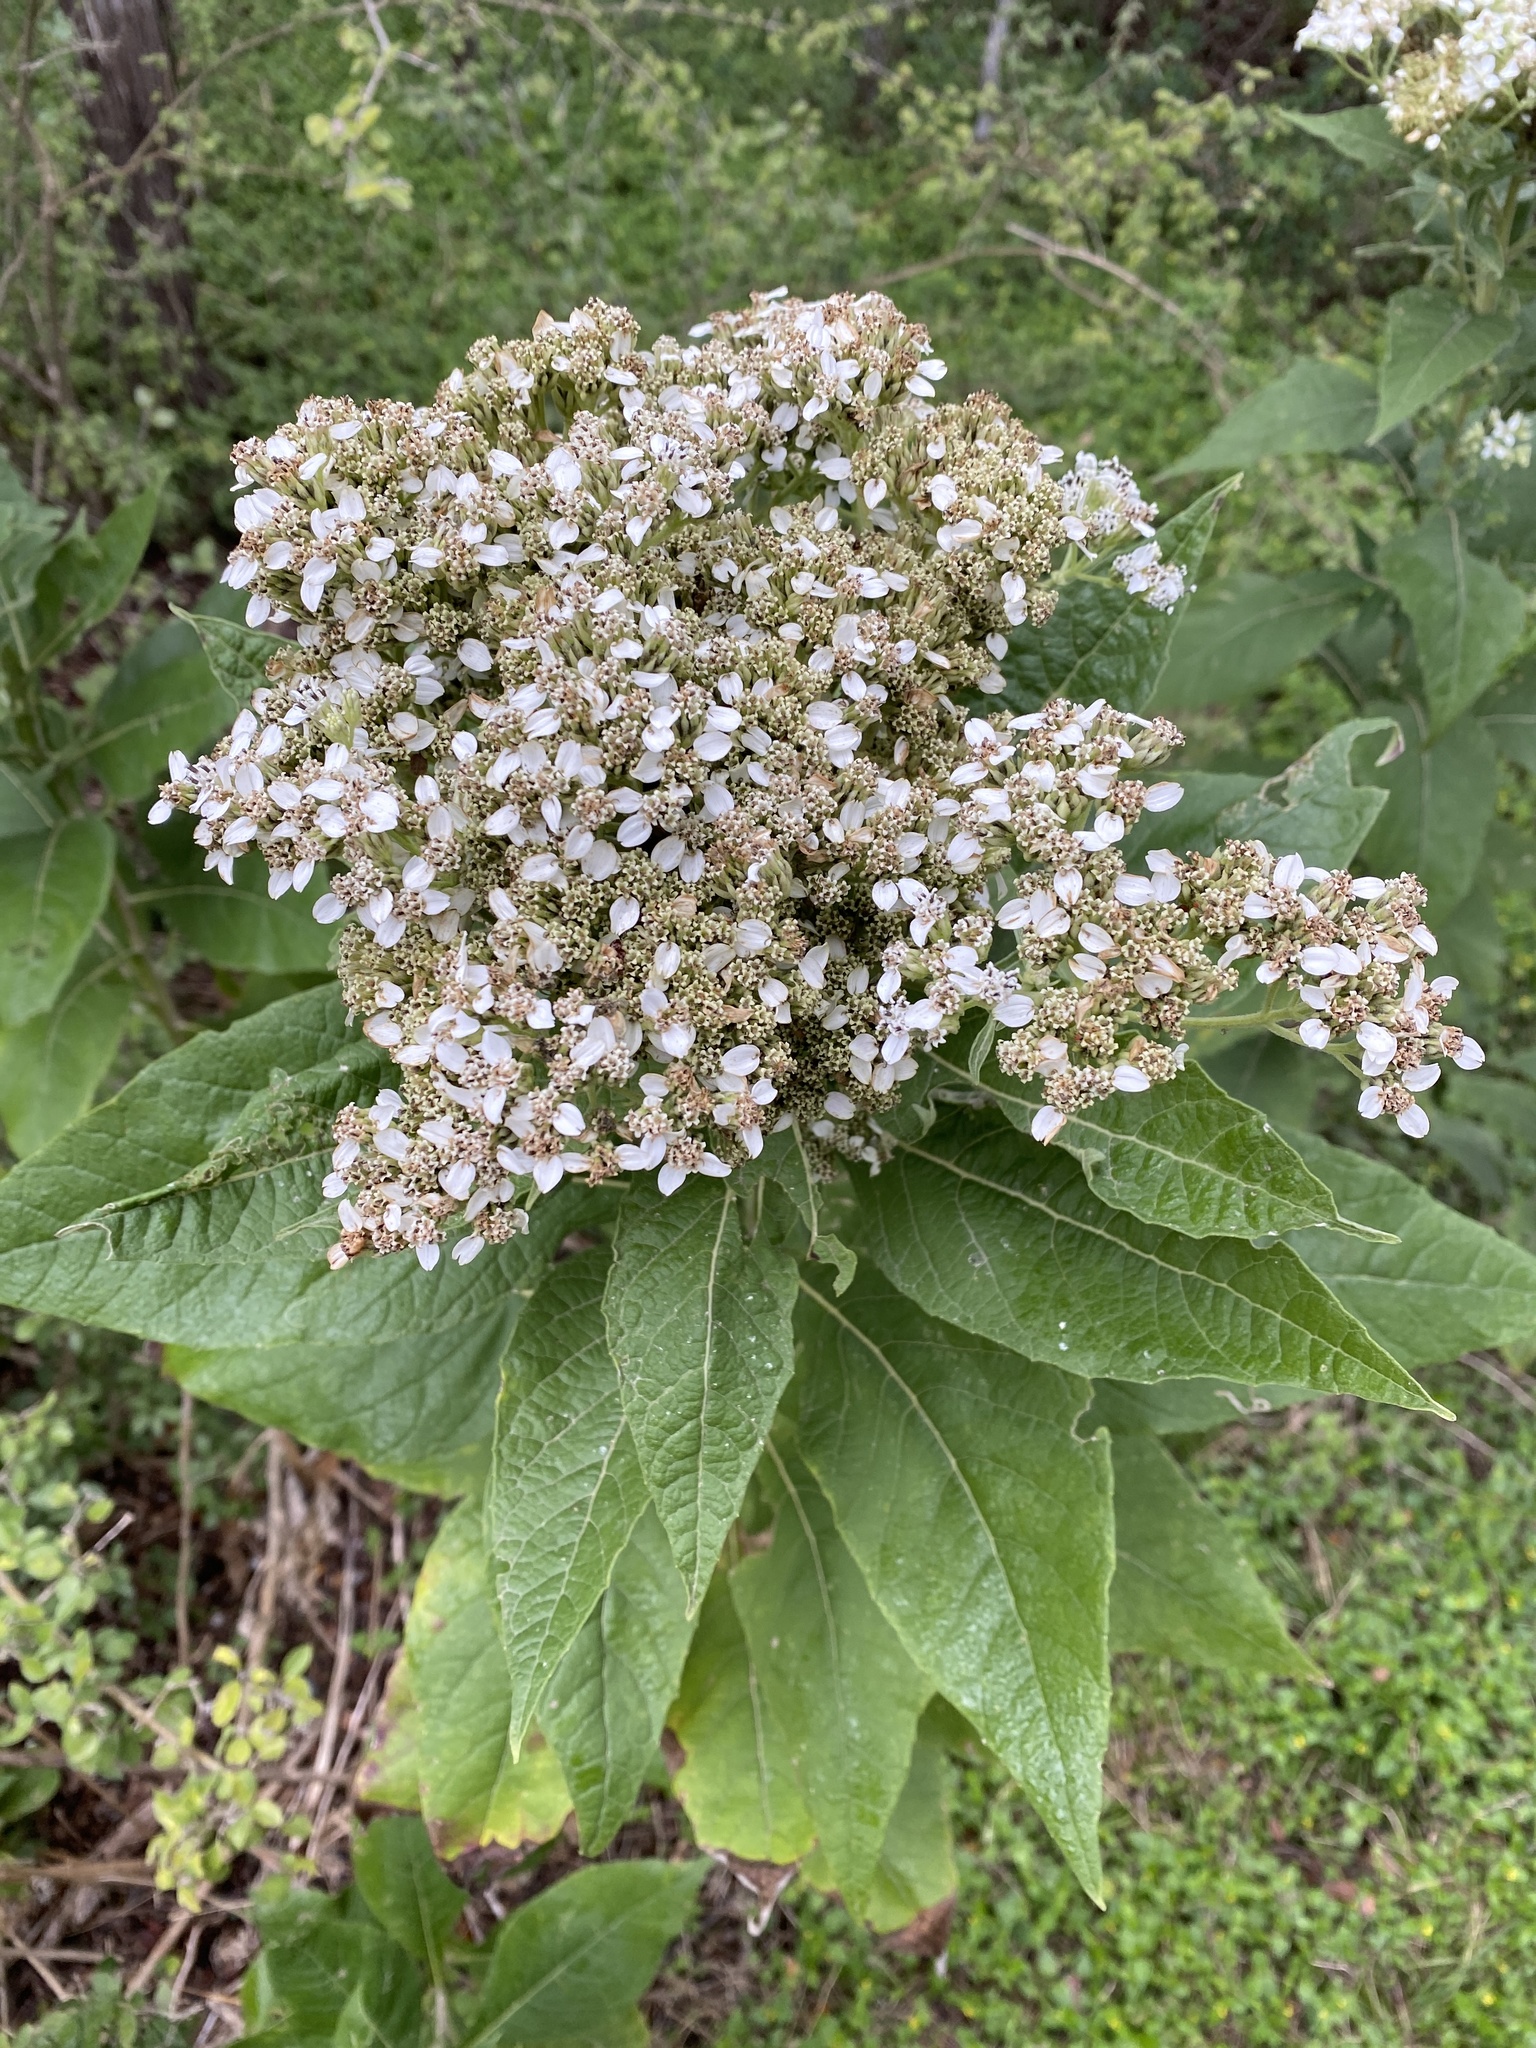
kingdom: Plantae
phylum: Tracheophyta
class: Magnoliopsida
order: Asterales
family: Asteraceae
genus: Verbesina
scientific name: Verbesina virginica
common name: Frostweed
